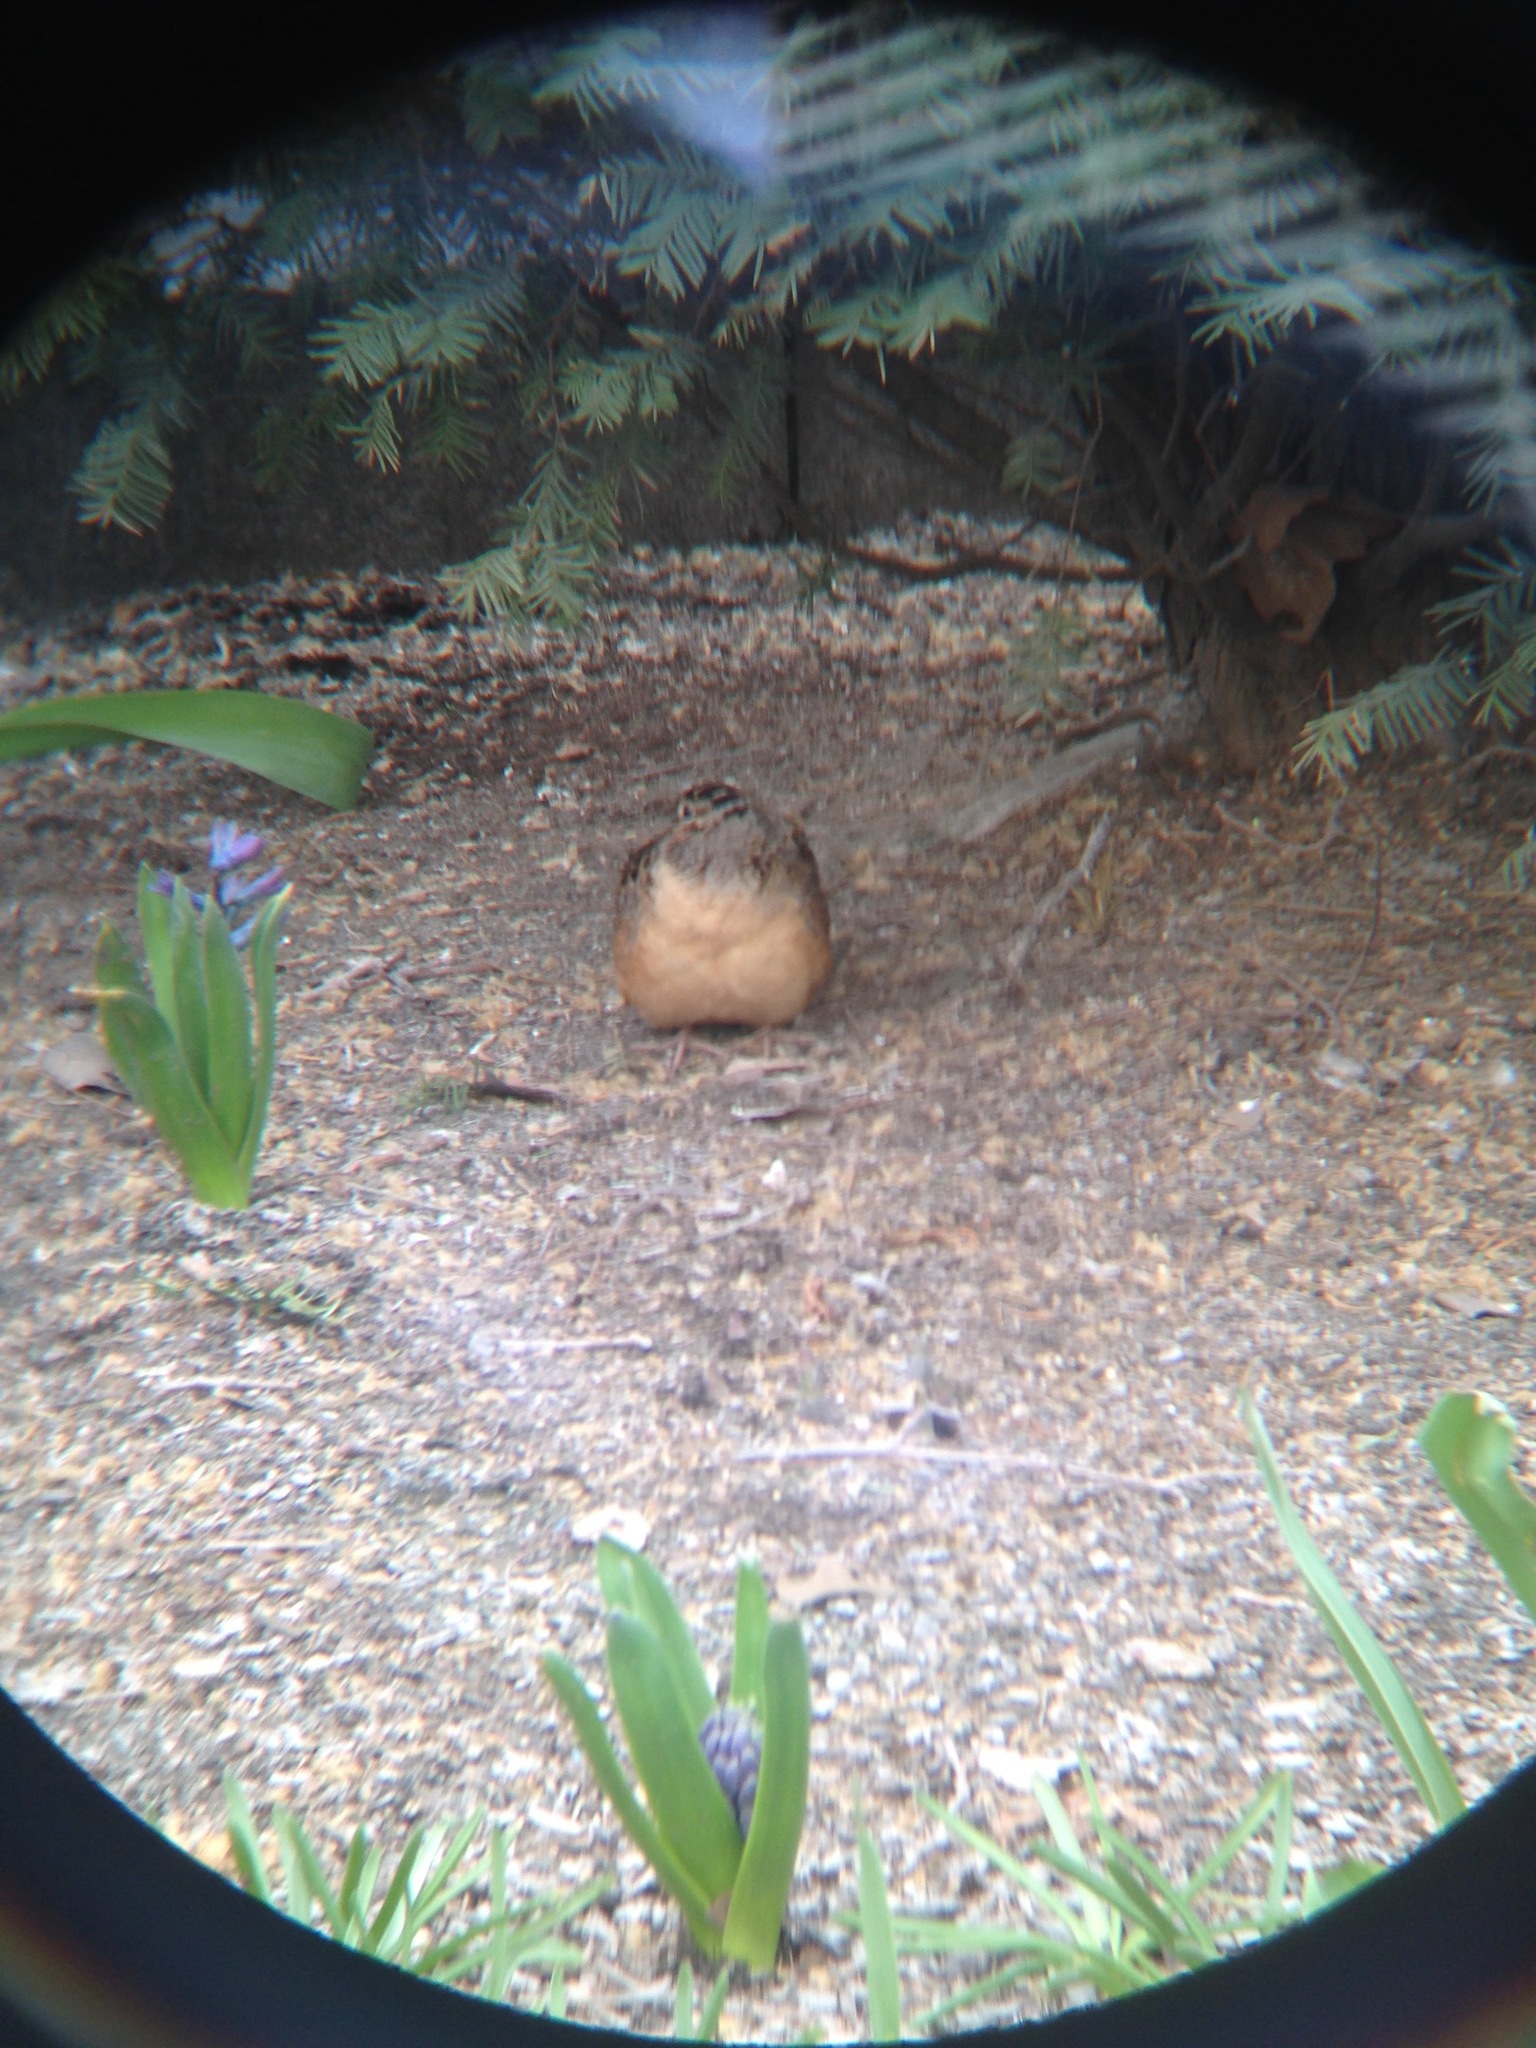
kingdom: Animalia
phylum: Chordata
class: Aves
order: Charadriiformes
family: Scolopacidae
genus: Scolopax
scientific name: Scolopax minor
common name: American woodcock
